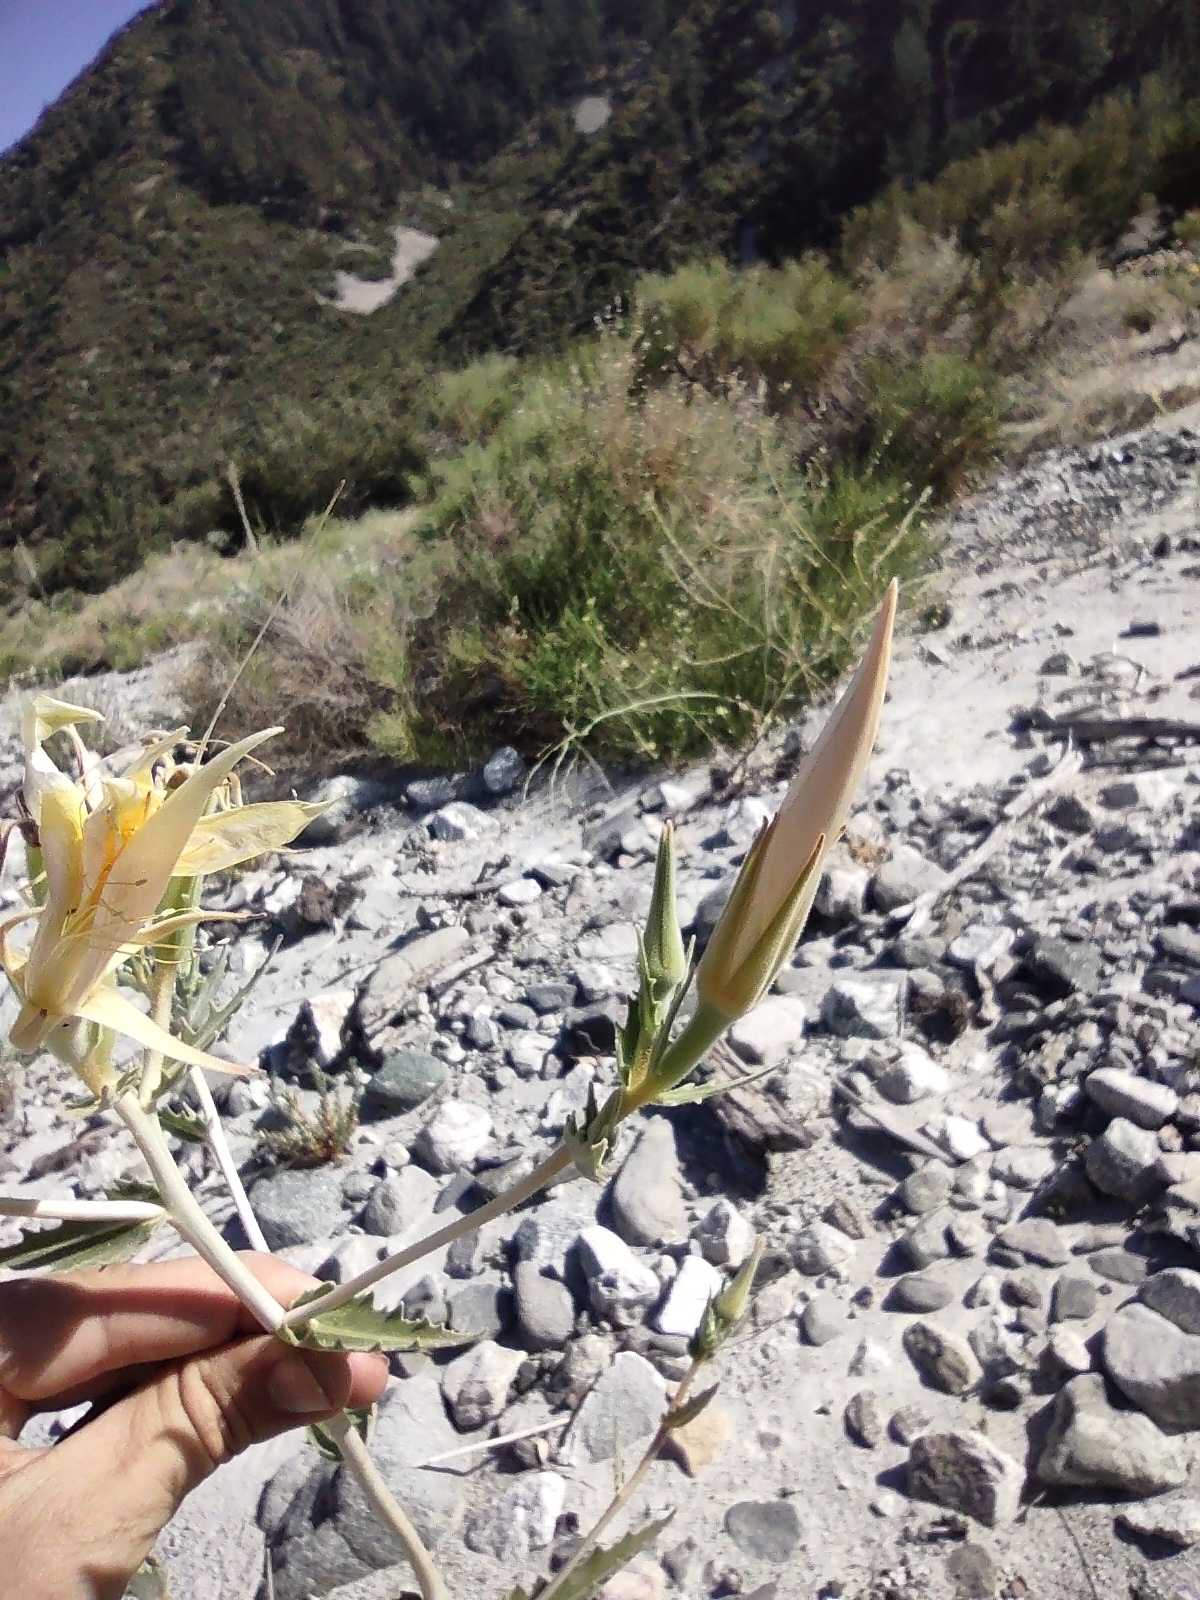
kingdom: Plantae
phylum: Tracheophyta
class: Magnoliopsida
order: Cornales
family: Loasaceae
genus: Mentzelia
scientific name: Mentzelia laevicaulis
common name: Smooth-stem blazingstar
